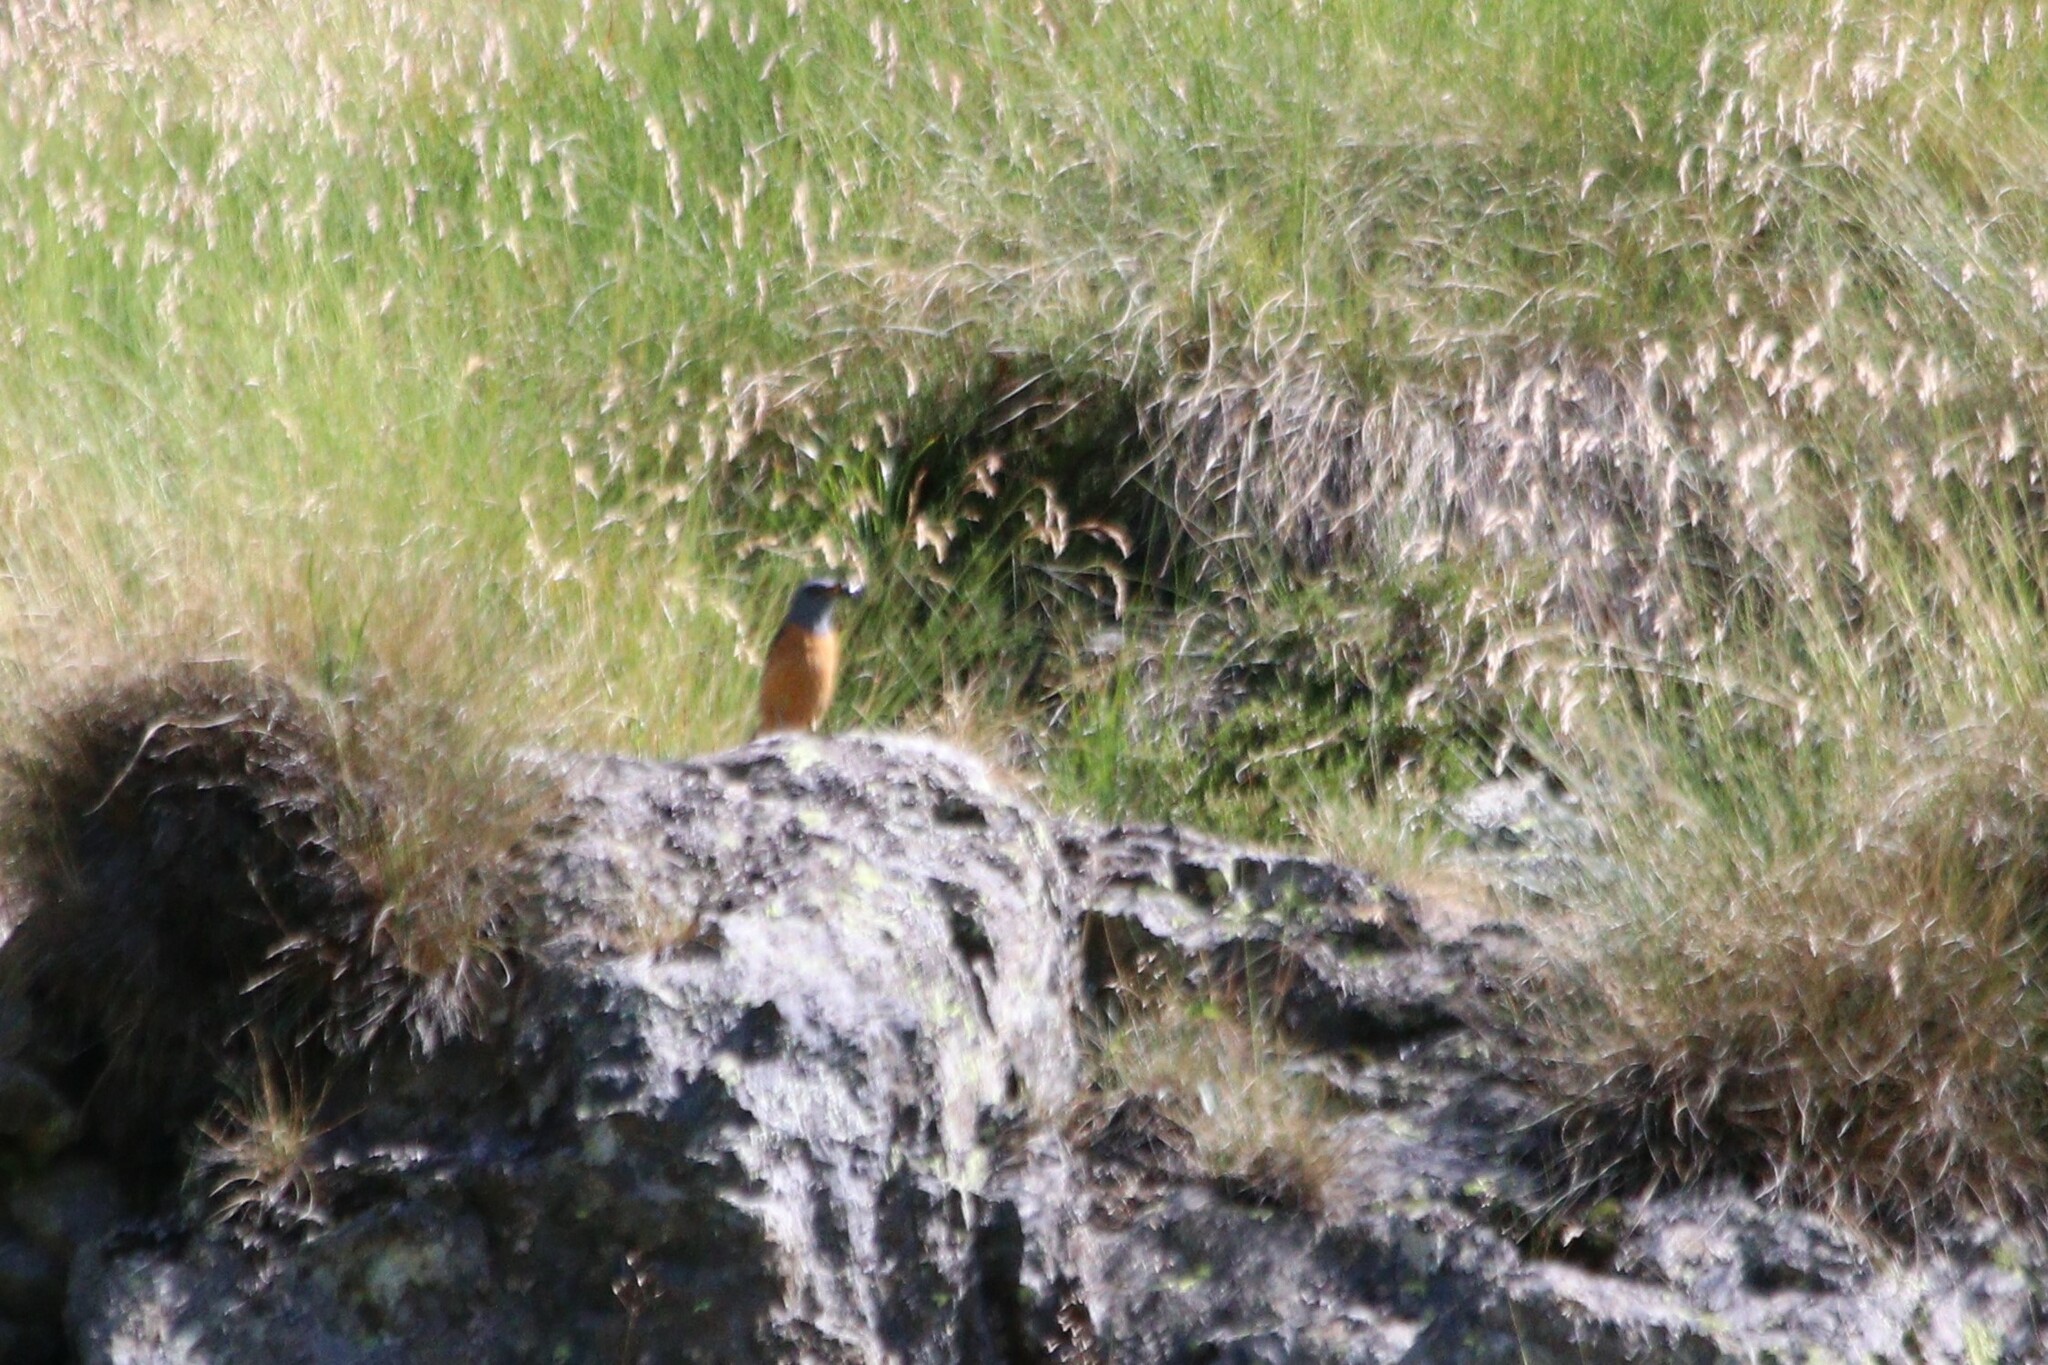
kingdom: Animalia
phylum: Chordata
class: Aves
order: Passeriformes
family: Muscicapidae
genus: Monticola
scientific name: Monticola saxatilis
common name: Rufous-tailed rock thrush
